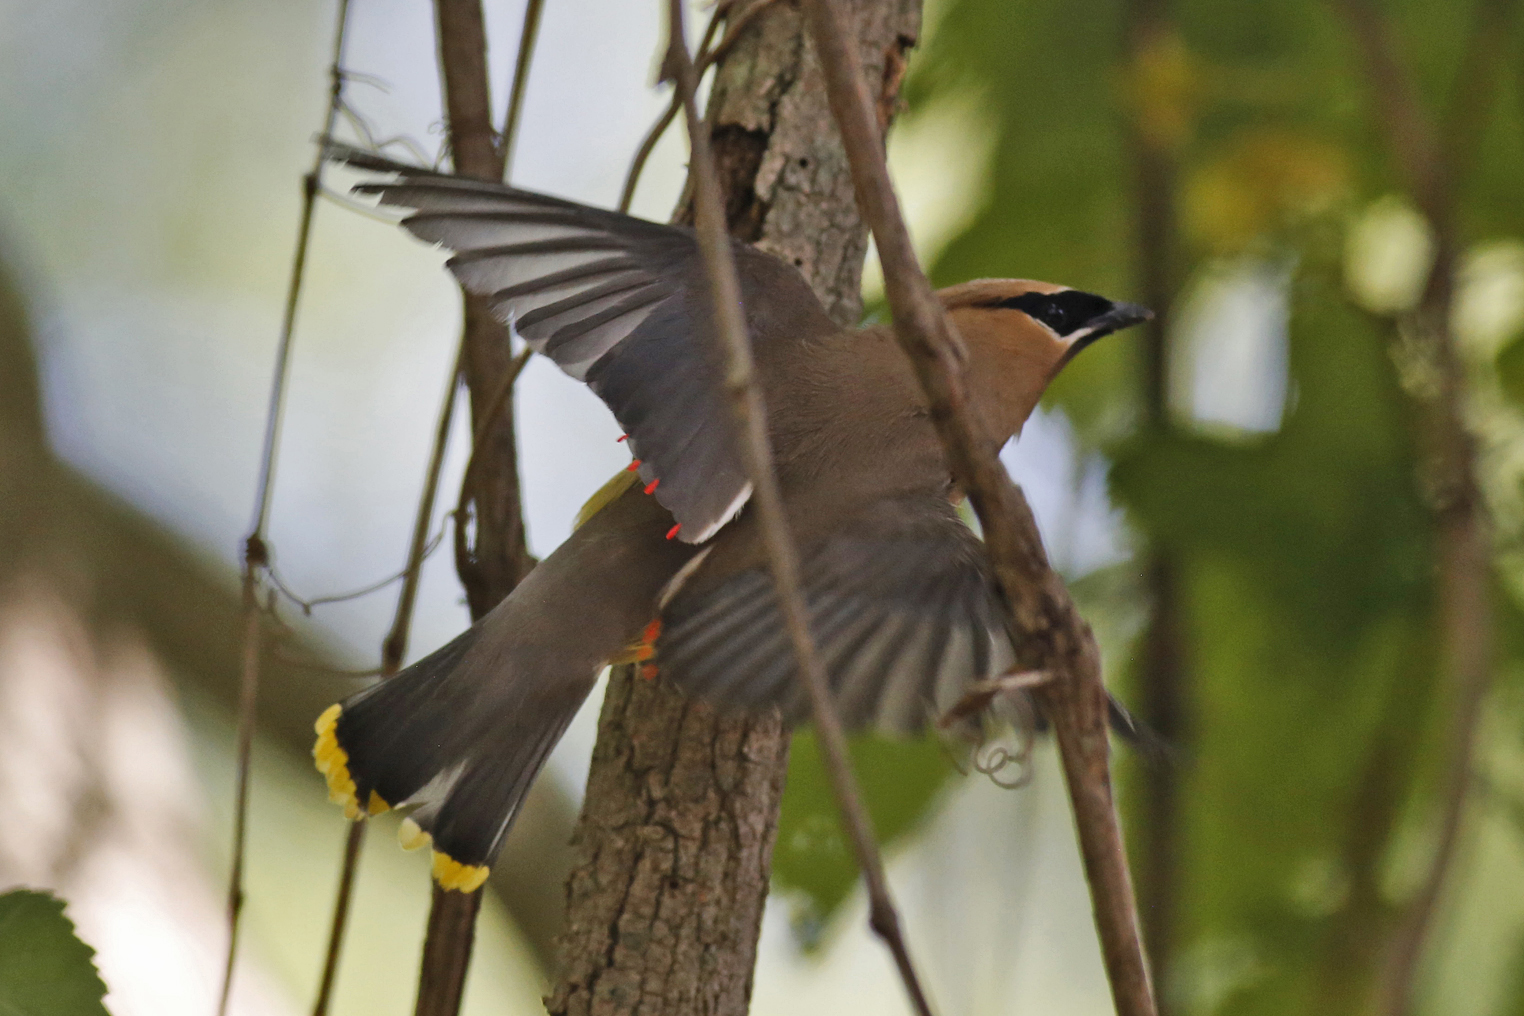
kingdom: Animalia
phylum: Chordata
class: Aves
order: Passeriformes
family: Bombycillidae
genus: Bombycilla
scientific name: Bombycilla cedrorum
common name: Cedar waxwing
